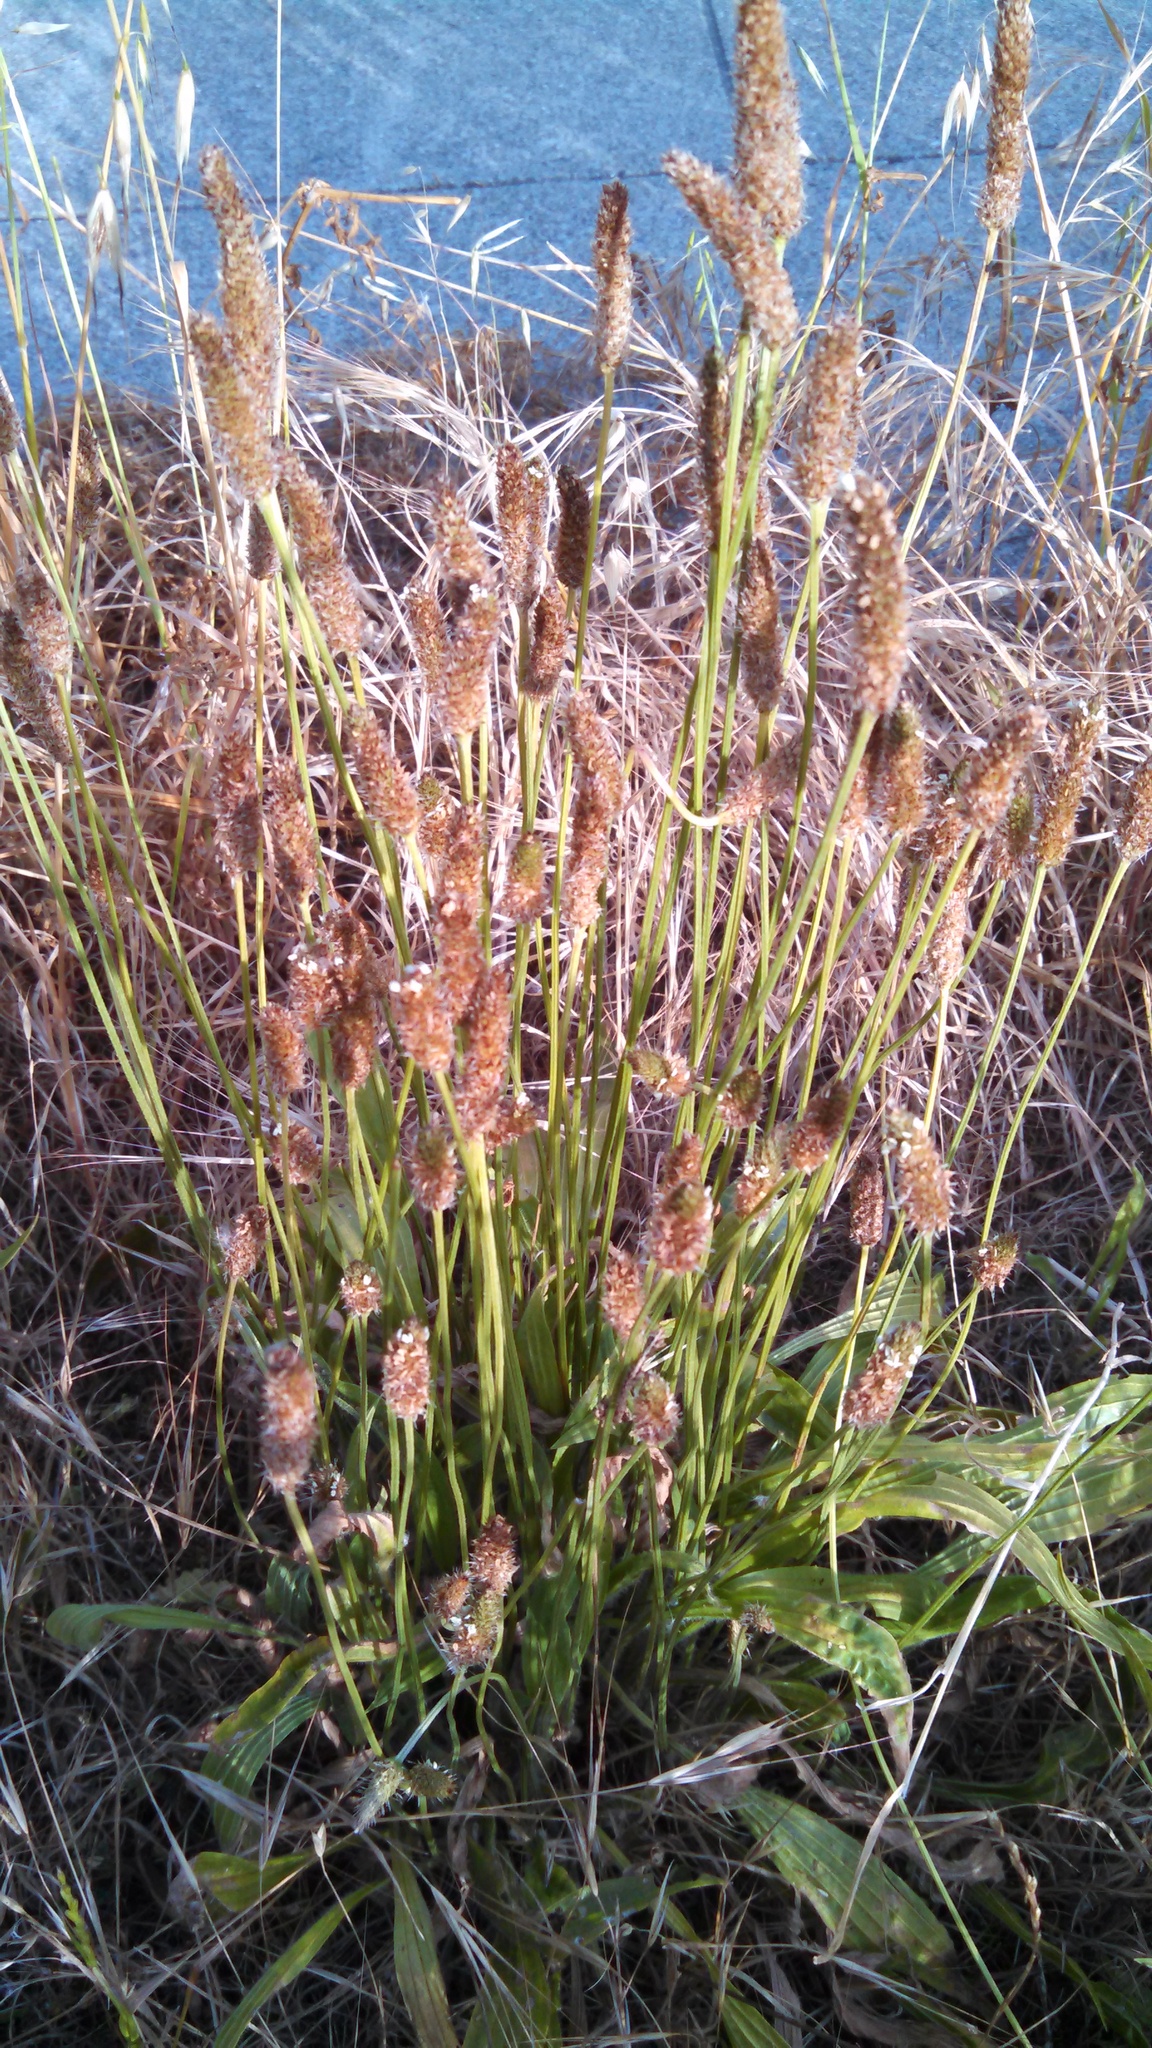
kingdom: Plantae
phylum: Tracheophyta
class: Magnoliopsida
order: Lamiales
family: Plantaginaceae
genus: Plantago
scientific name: Plantago lanceolata
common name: Ribwort plantain
